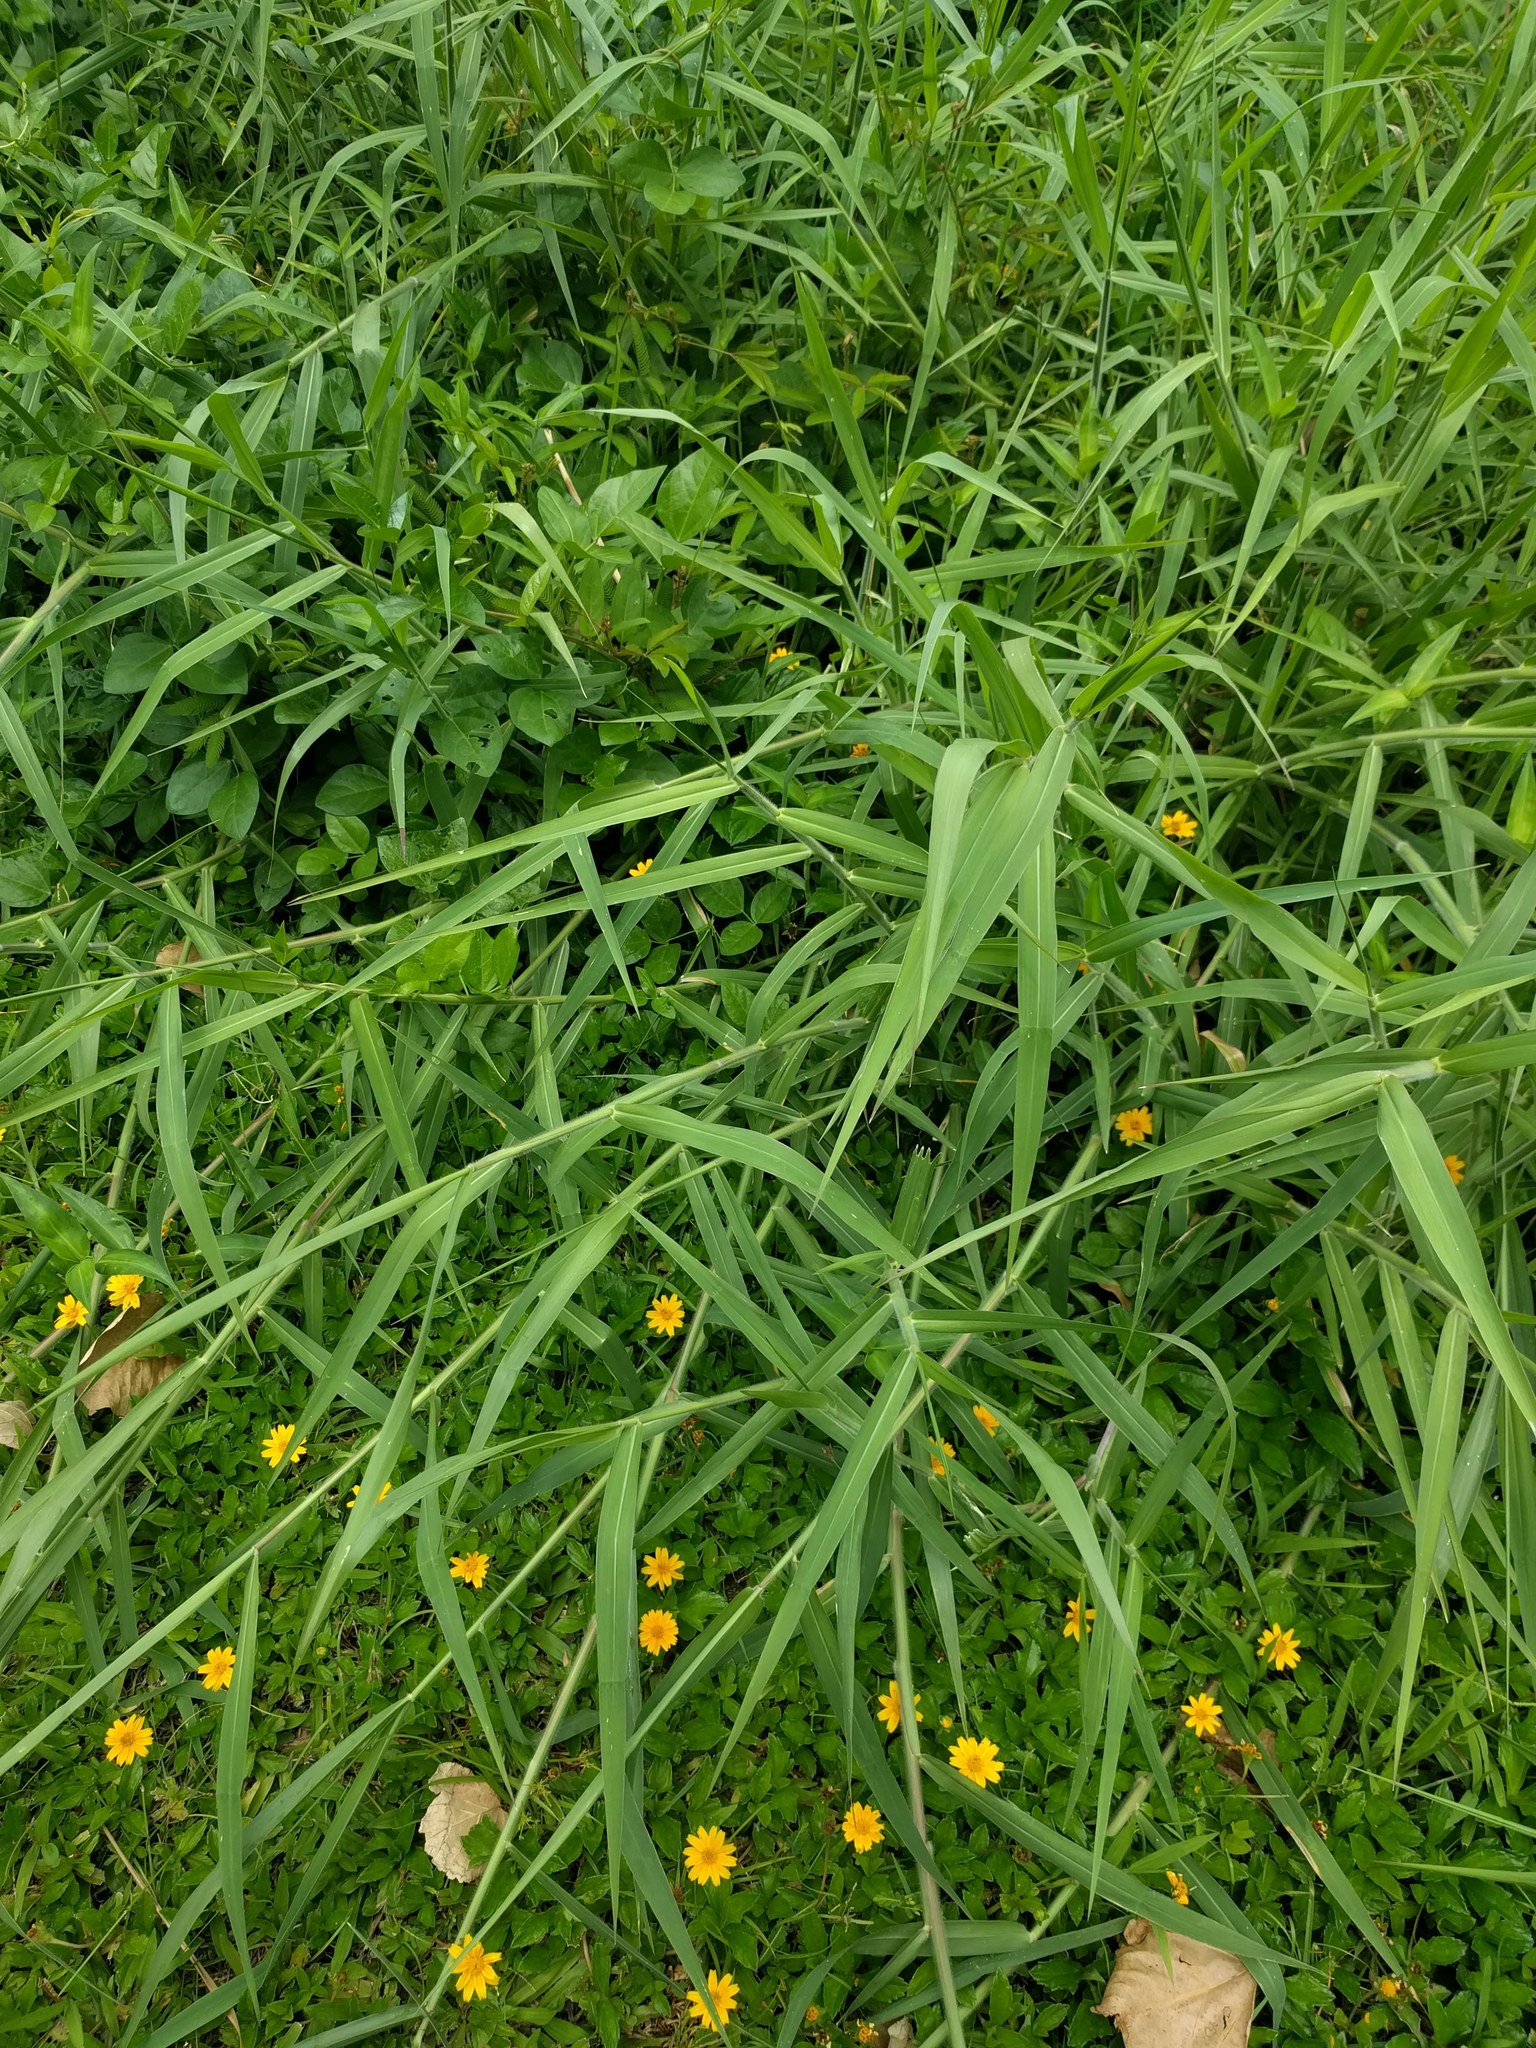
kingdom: Plantae
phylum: Tracheophyta
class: Liliopsida
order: Poales
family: Poaceae
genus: Urochloa
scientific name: Urochloa mutica
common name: Para grass
